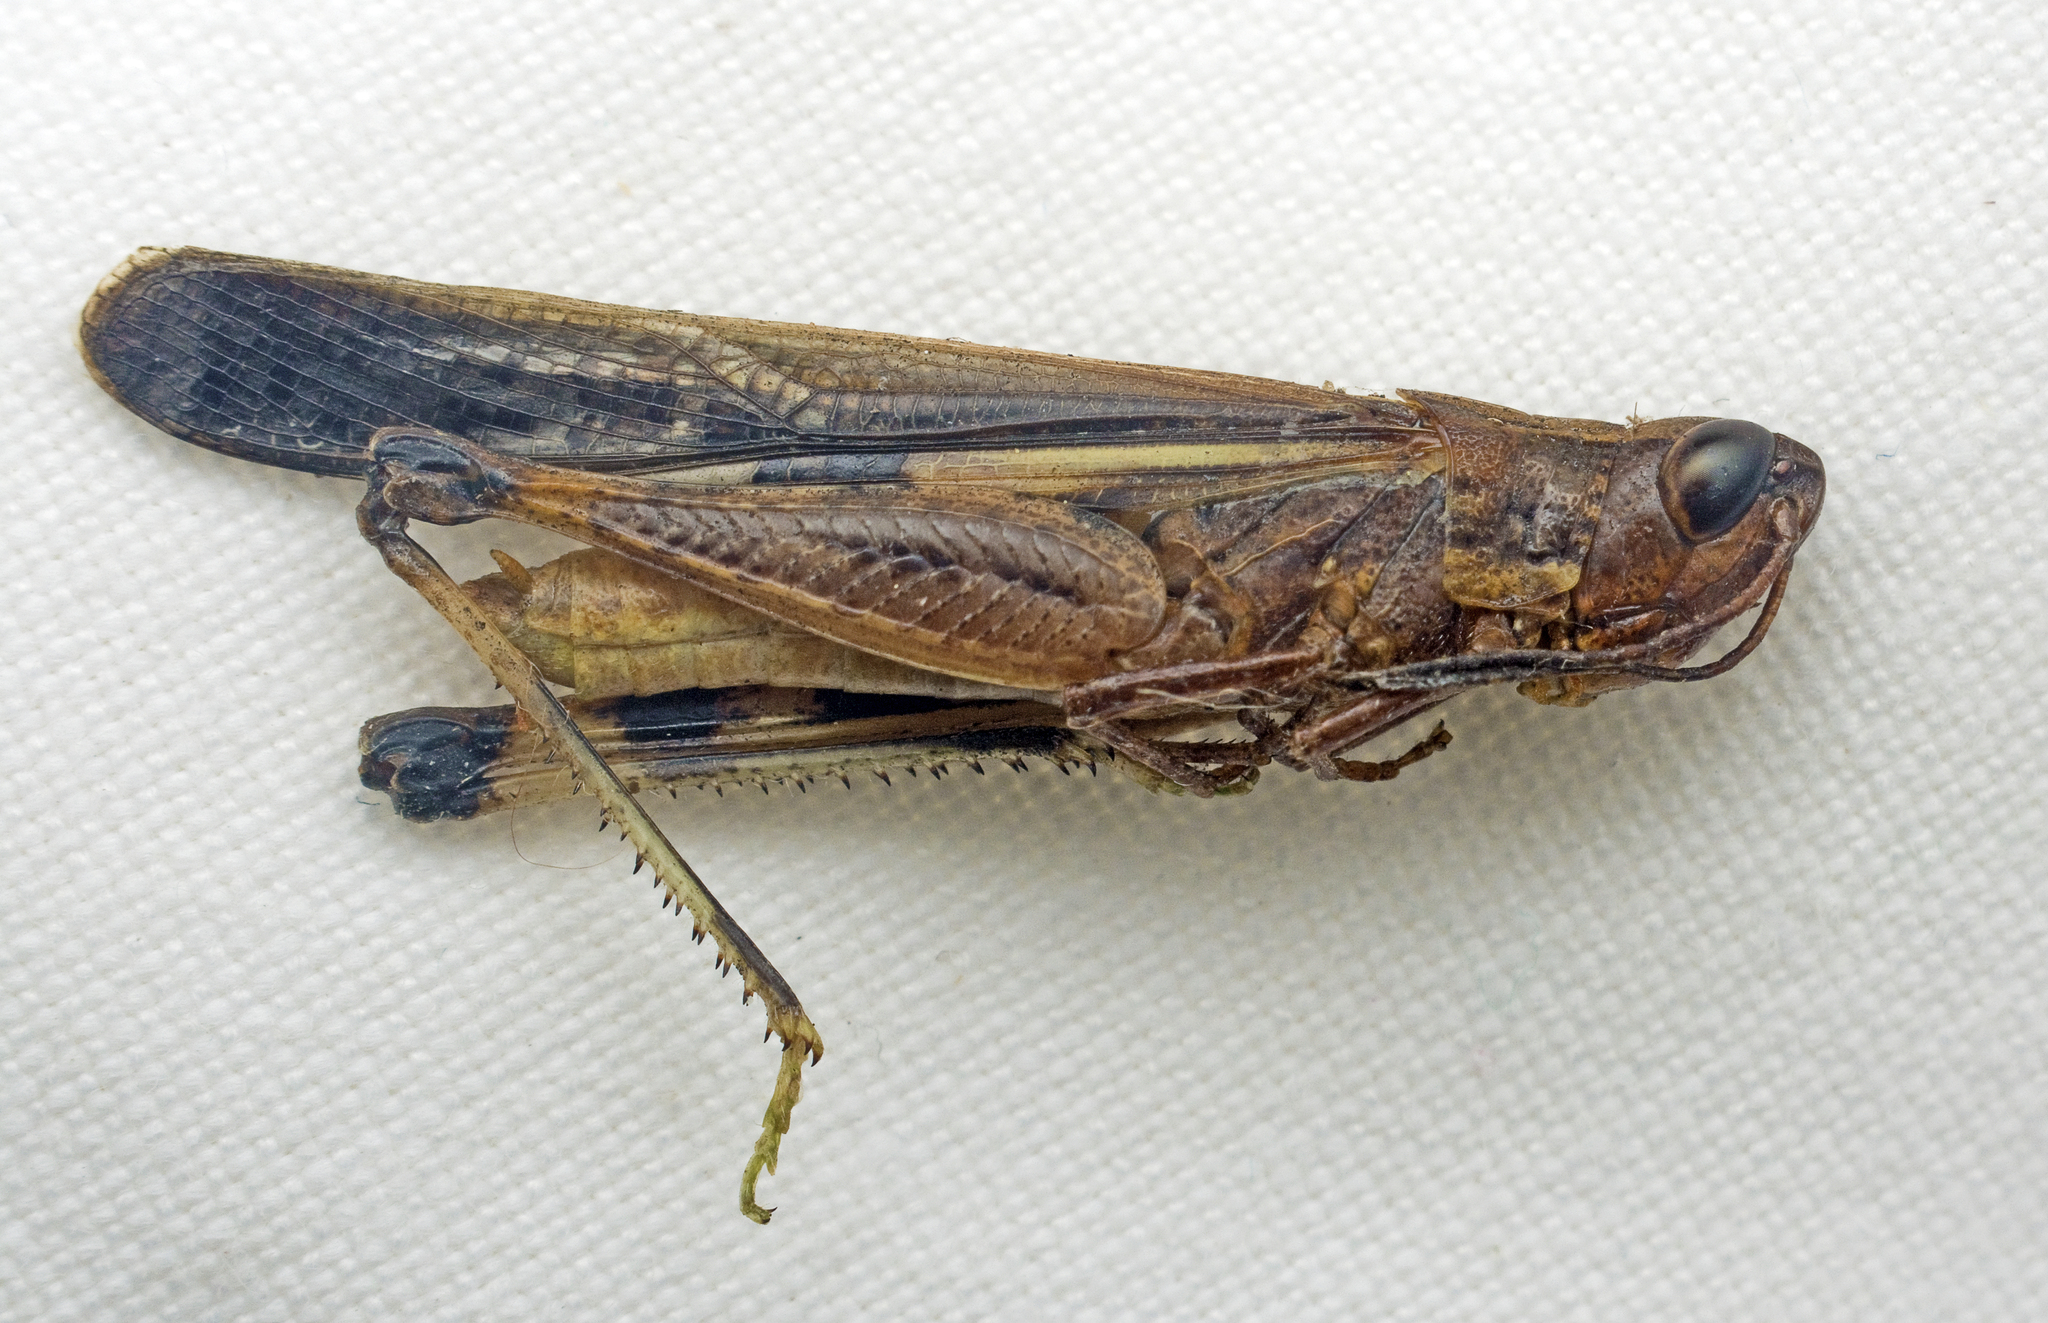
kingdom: Animalia
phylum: Arthropoda
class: Insecta
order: Orthoptera
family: Acrididae
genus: Aiolopus
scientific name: Aiolopus thalassinus
